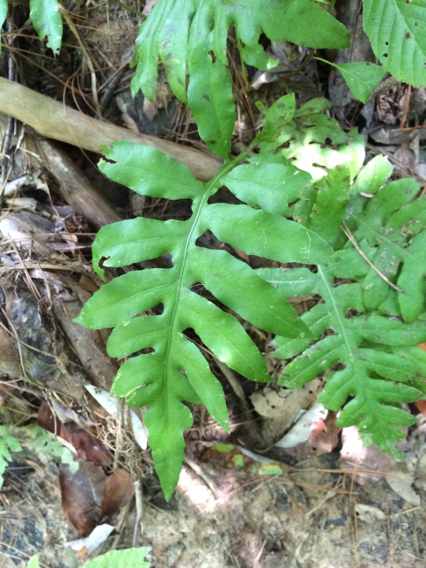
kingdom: Plantae
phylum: Tracheophyta
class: Polypodiopsida
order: Polypodiales
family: Blechnaceae
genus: Lorinseria
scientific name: Lorinseria areolata
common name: Dwarf chain fern
